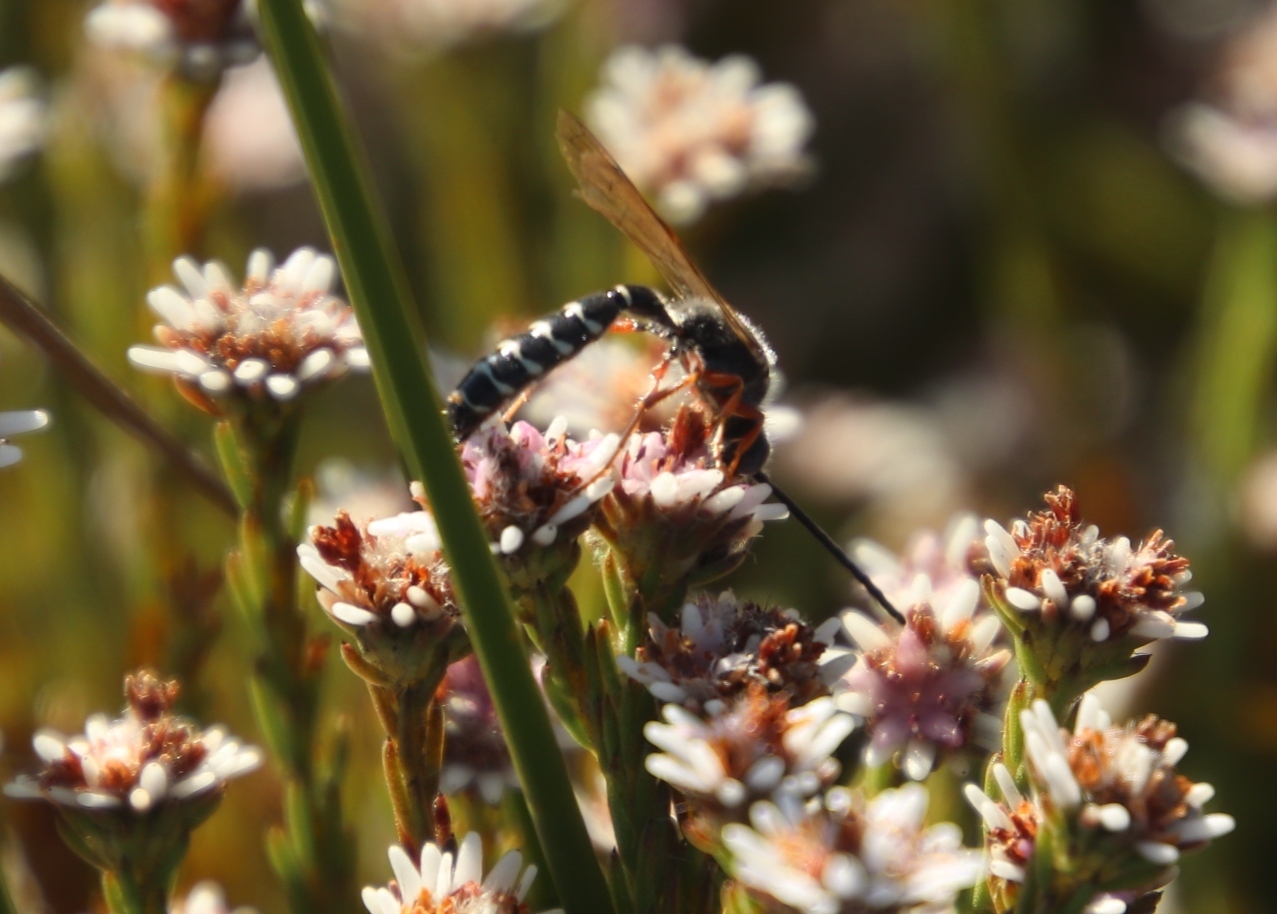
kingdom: Plantae
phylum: Tracheophyta
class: Magnoliopsida
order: Bruniales
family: Bruniaceae
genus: Staavia
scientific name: Staavia radiata
